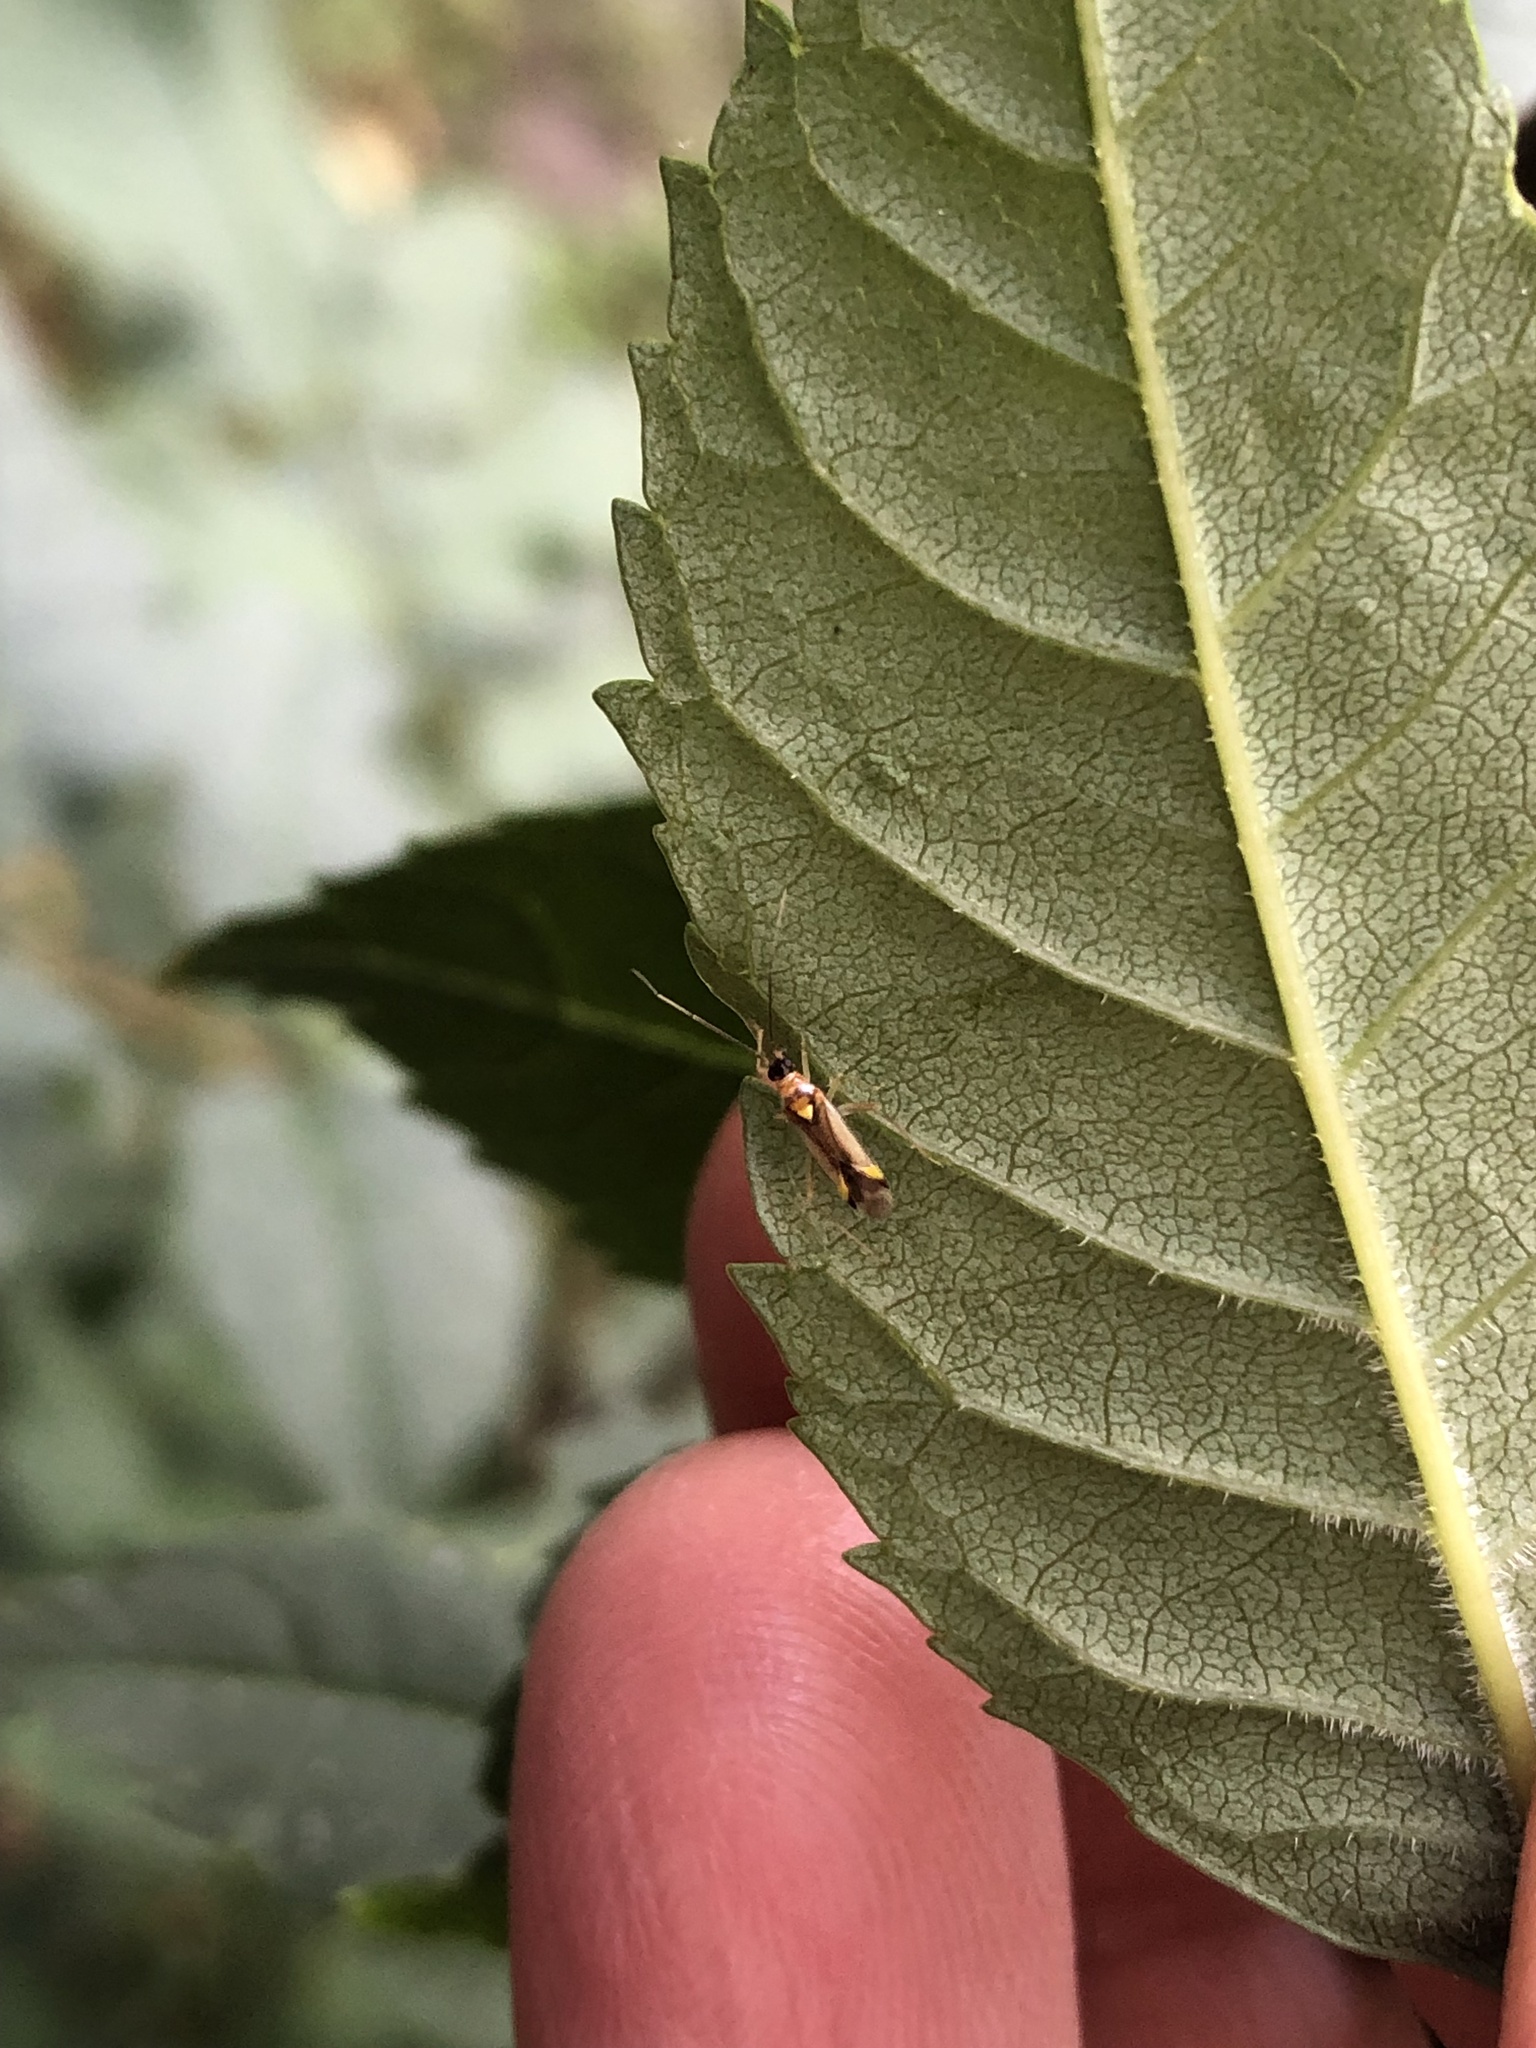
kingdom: Animalia
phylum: Arthropoda
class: Insecta
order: Hemiptera
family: Miridae
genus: Campyloneura
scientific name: Campyloneura virgula
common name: Predatory bug
